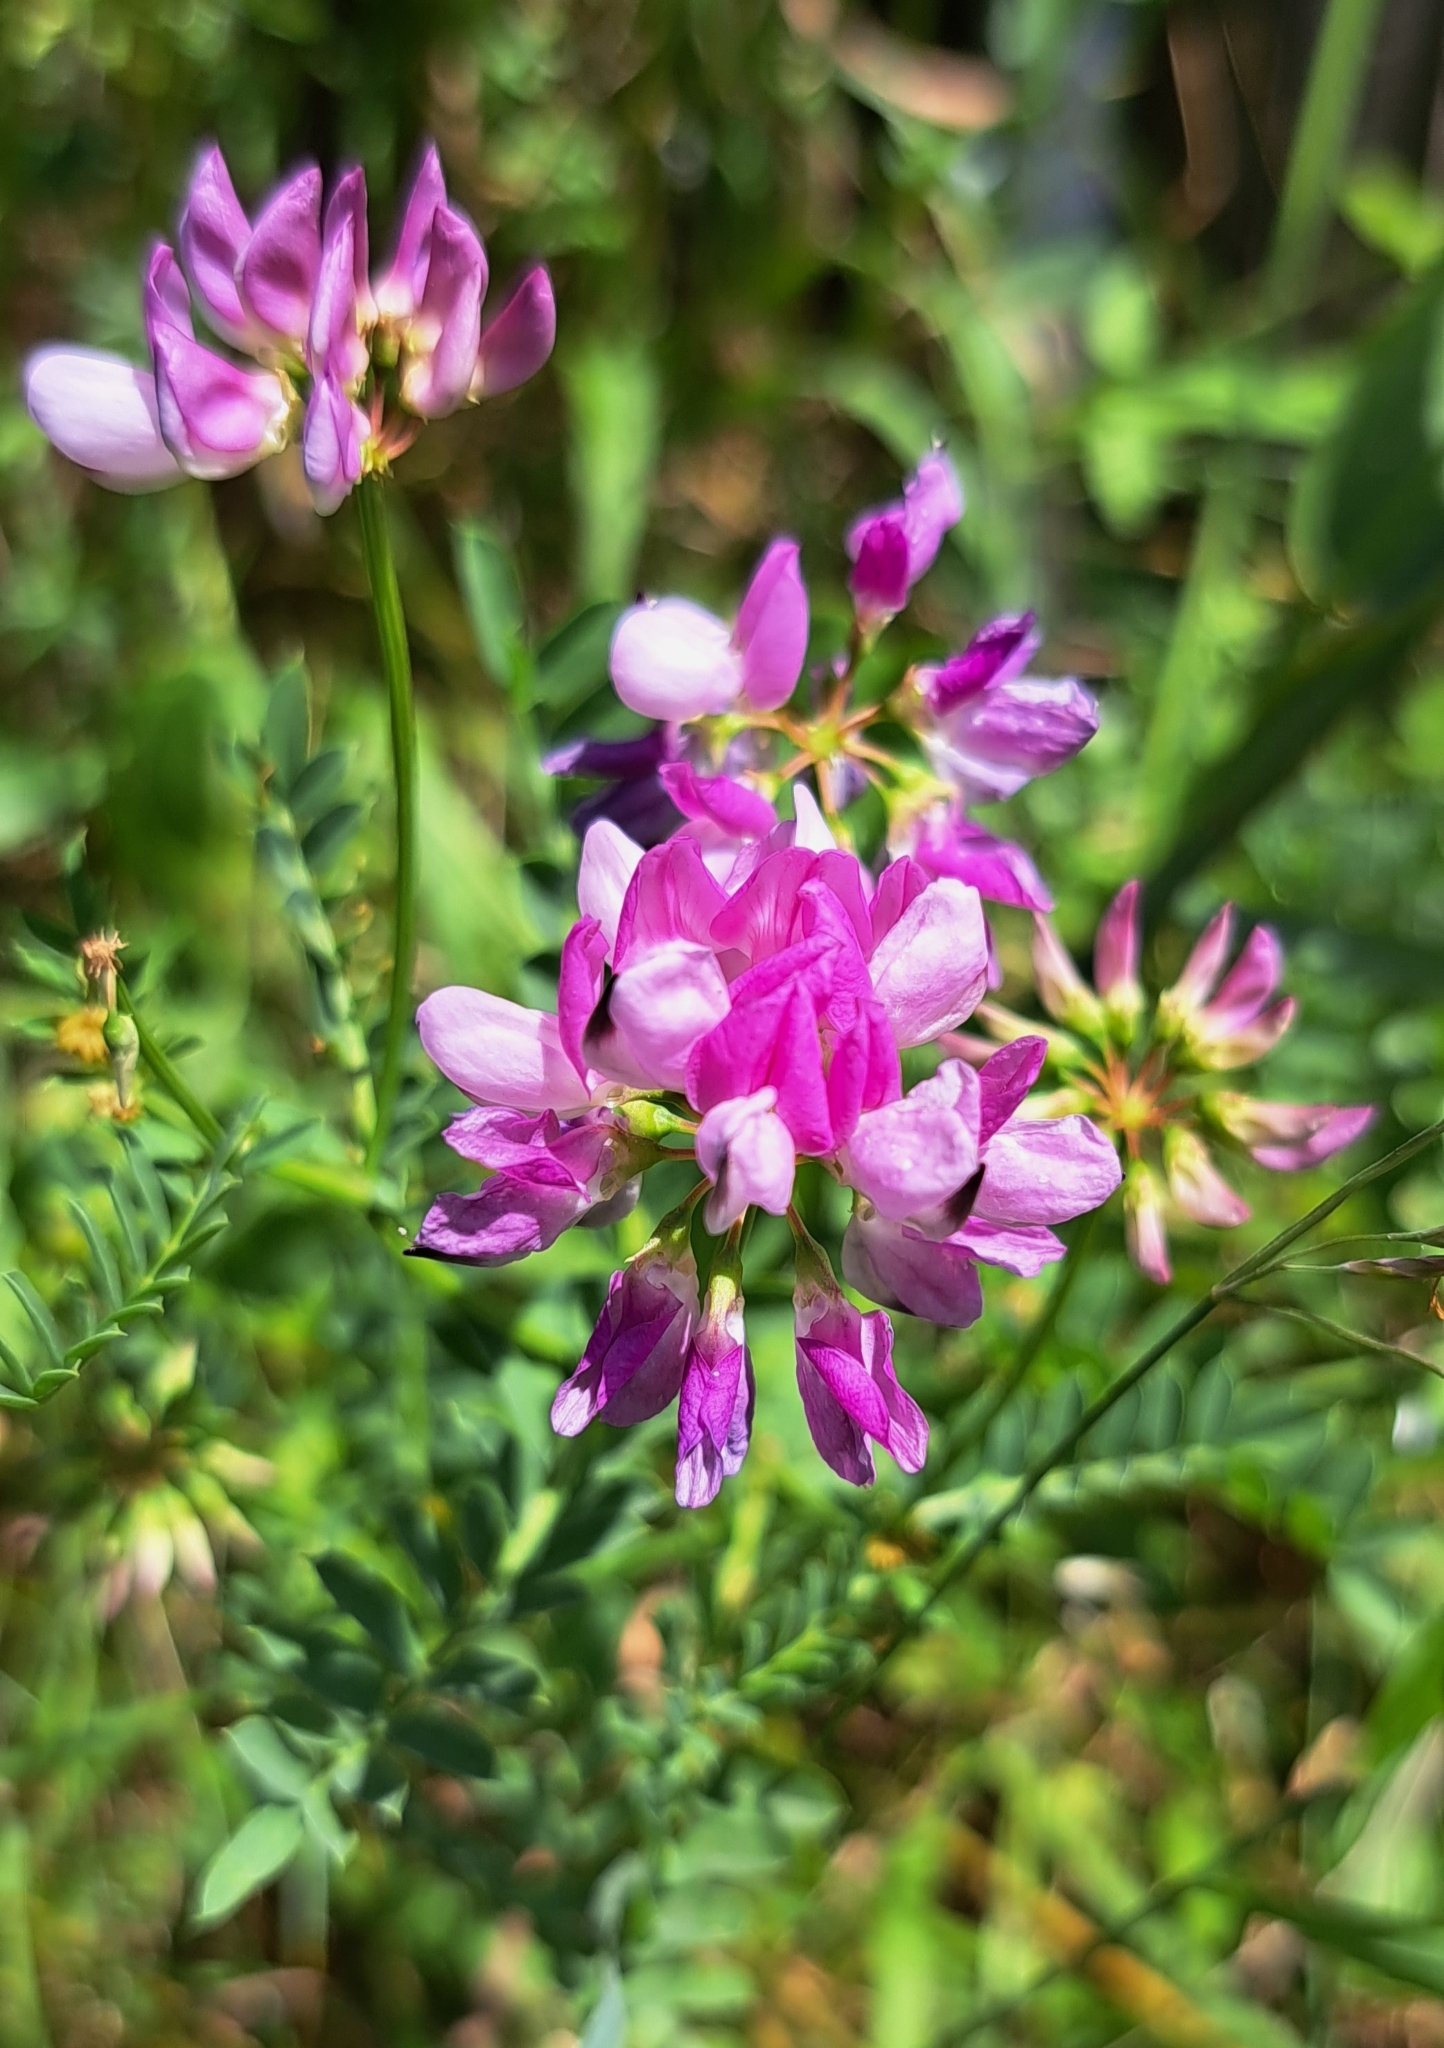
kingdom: Plantae
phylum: Tracheophyta
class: Magnoliopsida
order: Fabales
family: Fabaceae
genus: Coronilla
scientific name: Coronilla varia
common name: Crownvetch
